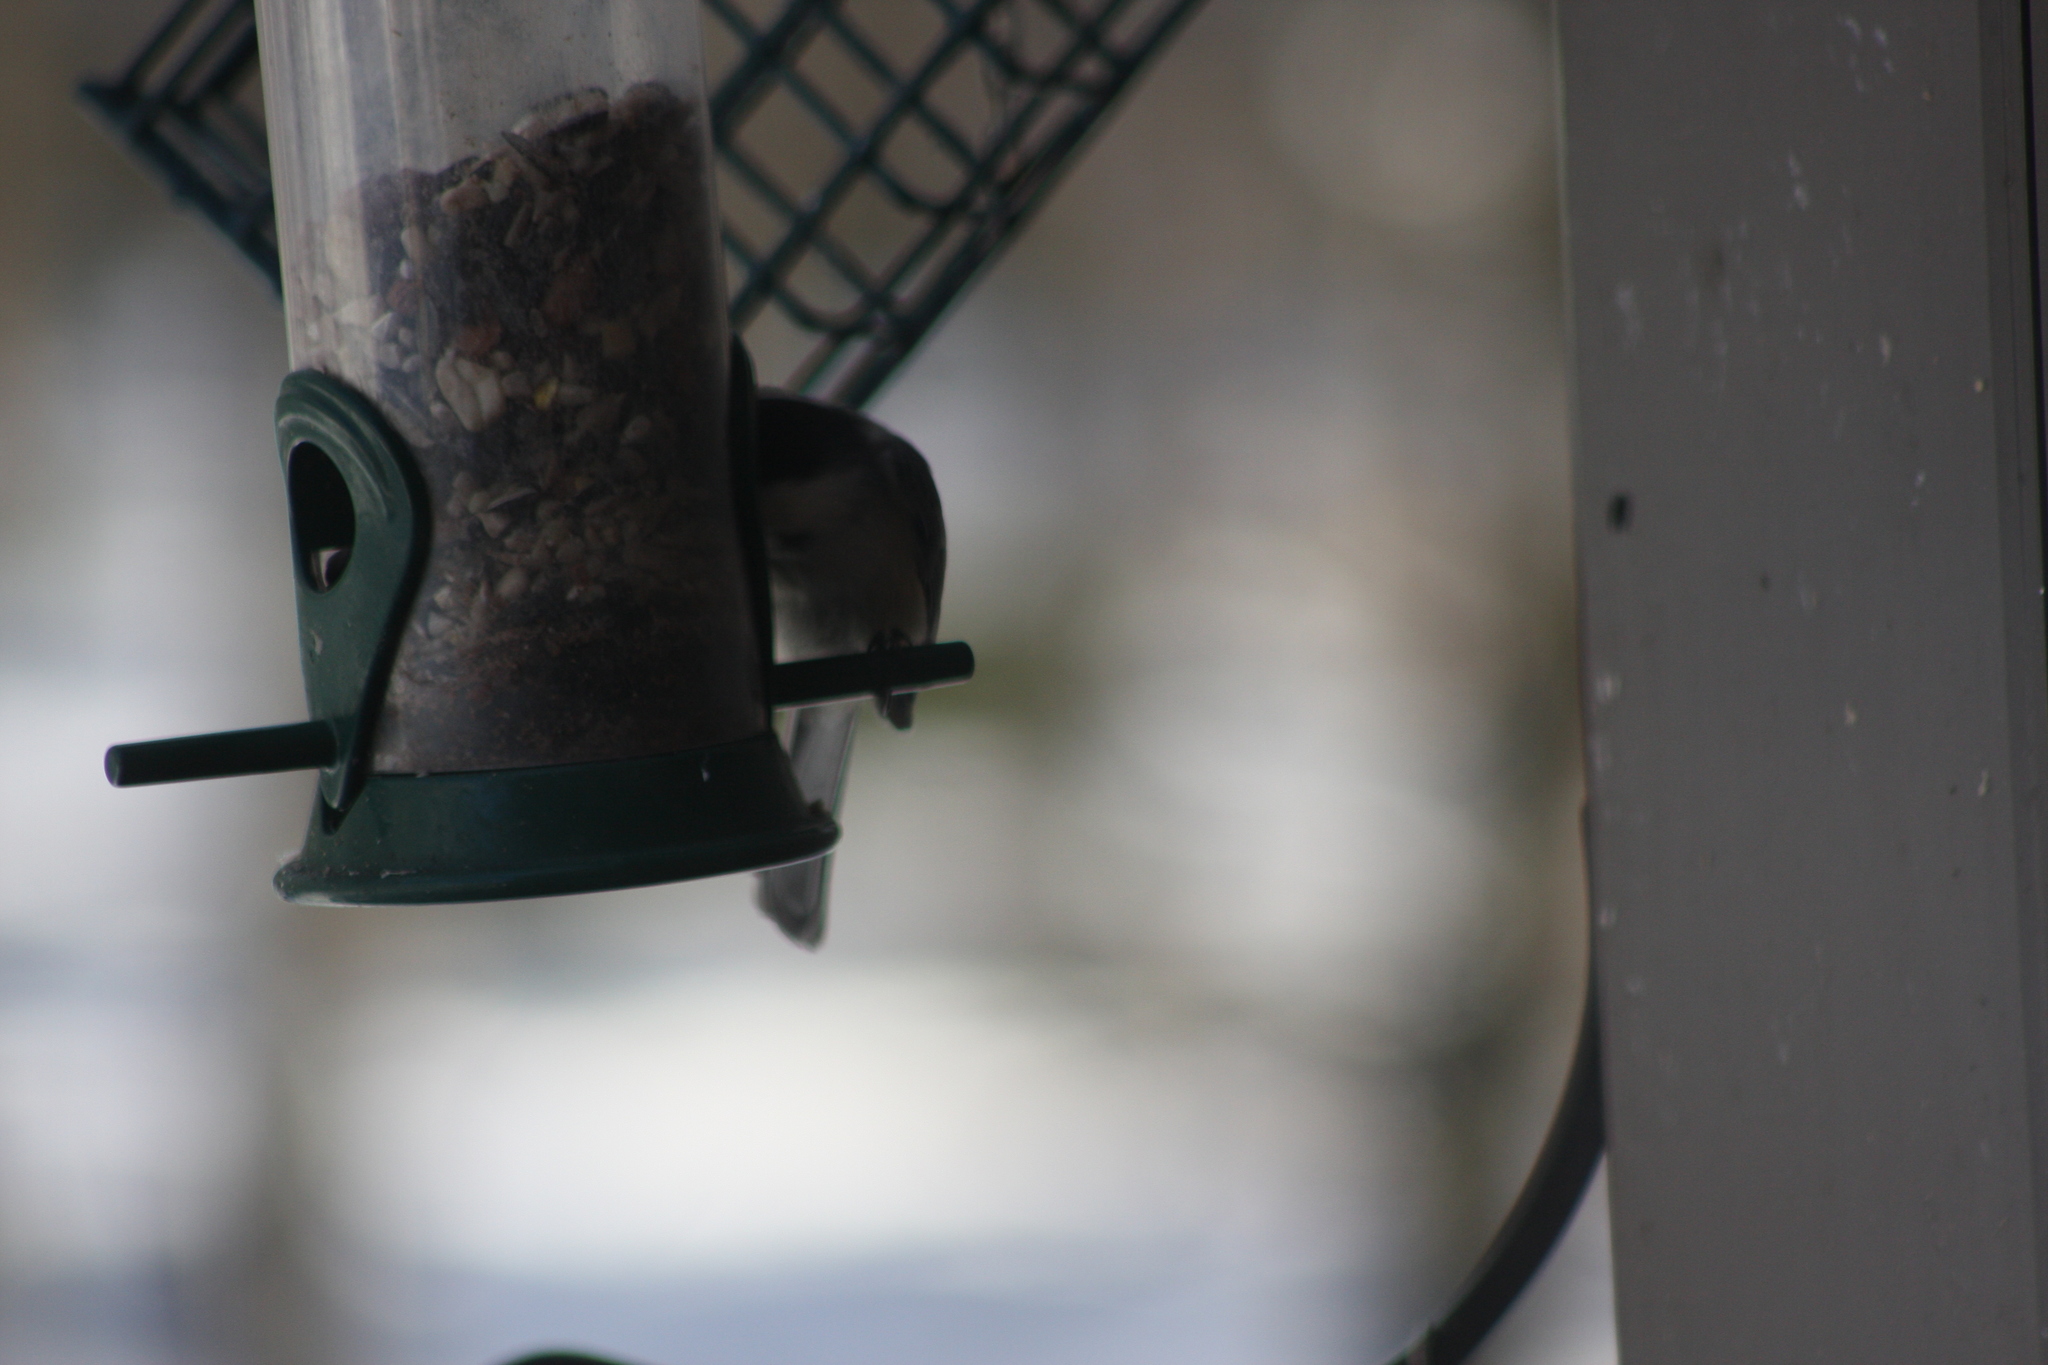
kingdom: Animalia
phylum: Chordata
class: Aves
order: Passeriformes
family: Paridae
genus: Poecile
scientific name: Poecile atricapillus
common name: Black-capped chickadee
